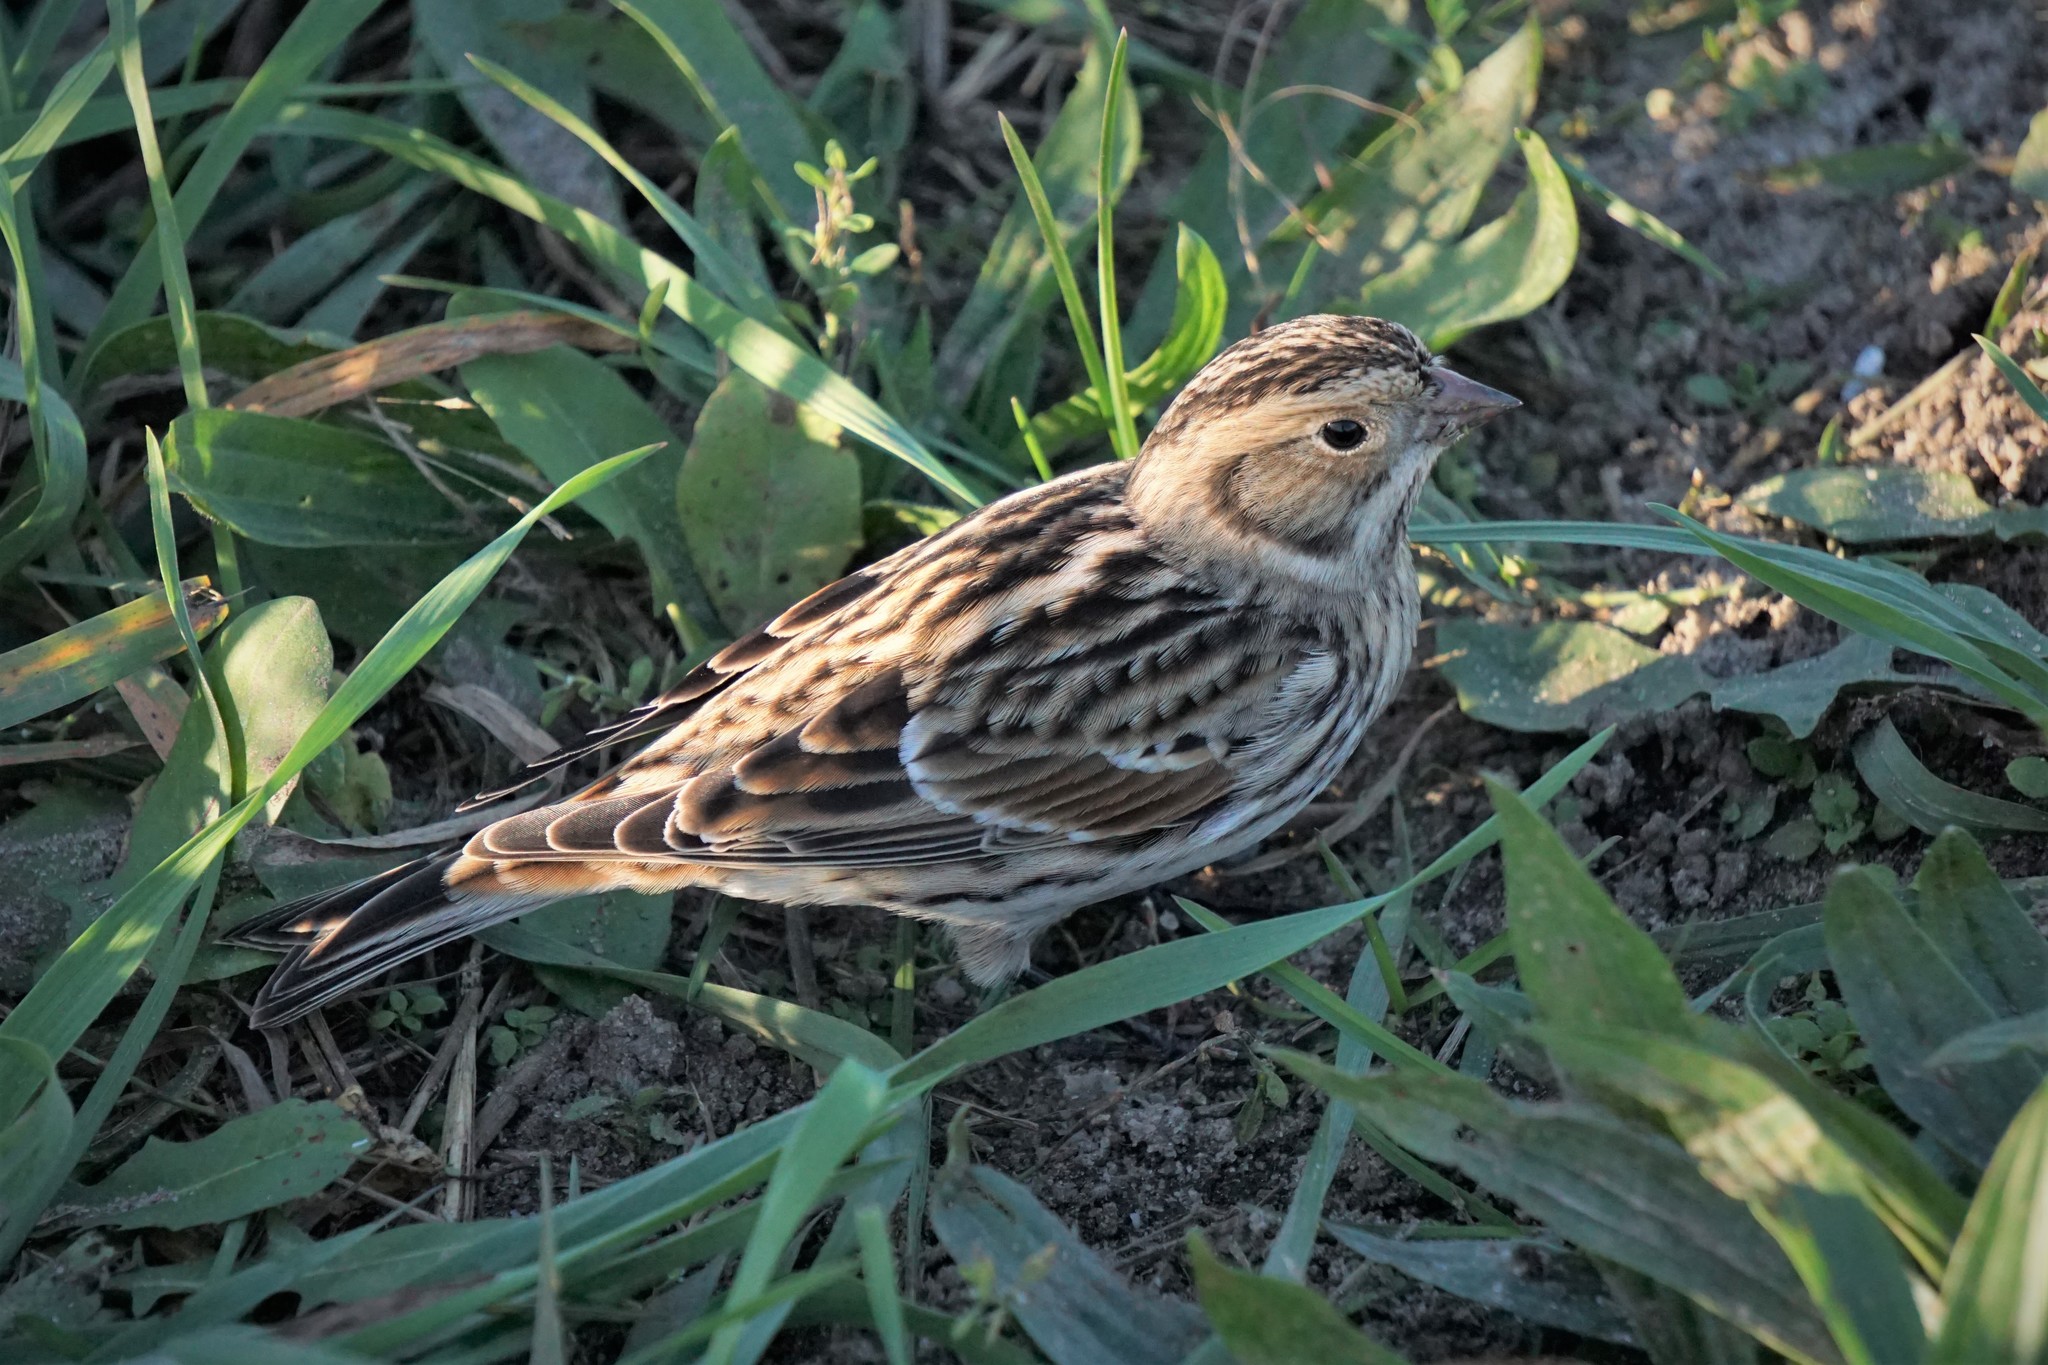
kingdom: Animalia
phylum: Chordata
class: Aves
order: Passeriformes
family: Calcariidae
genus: Calcarius
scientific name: Calcarius lapponicus
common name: Lapland longspur
